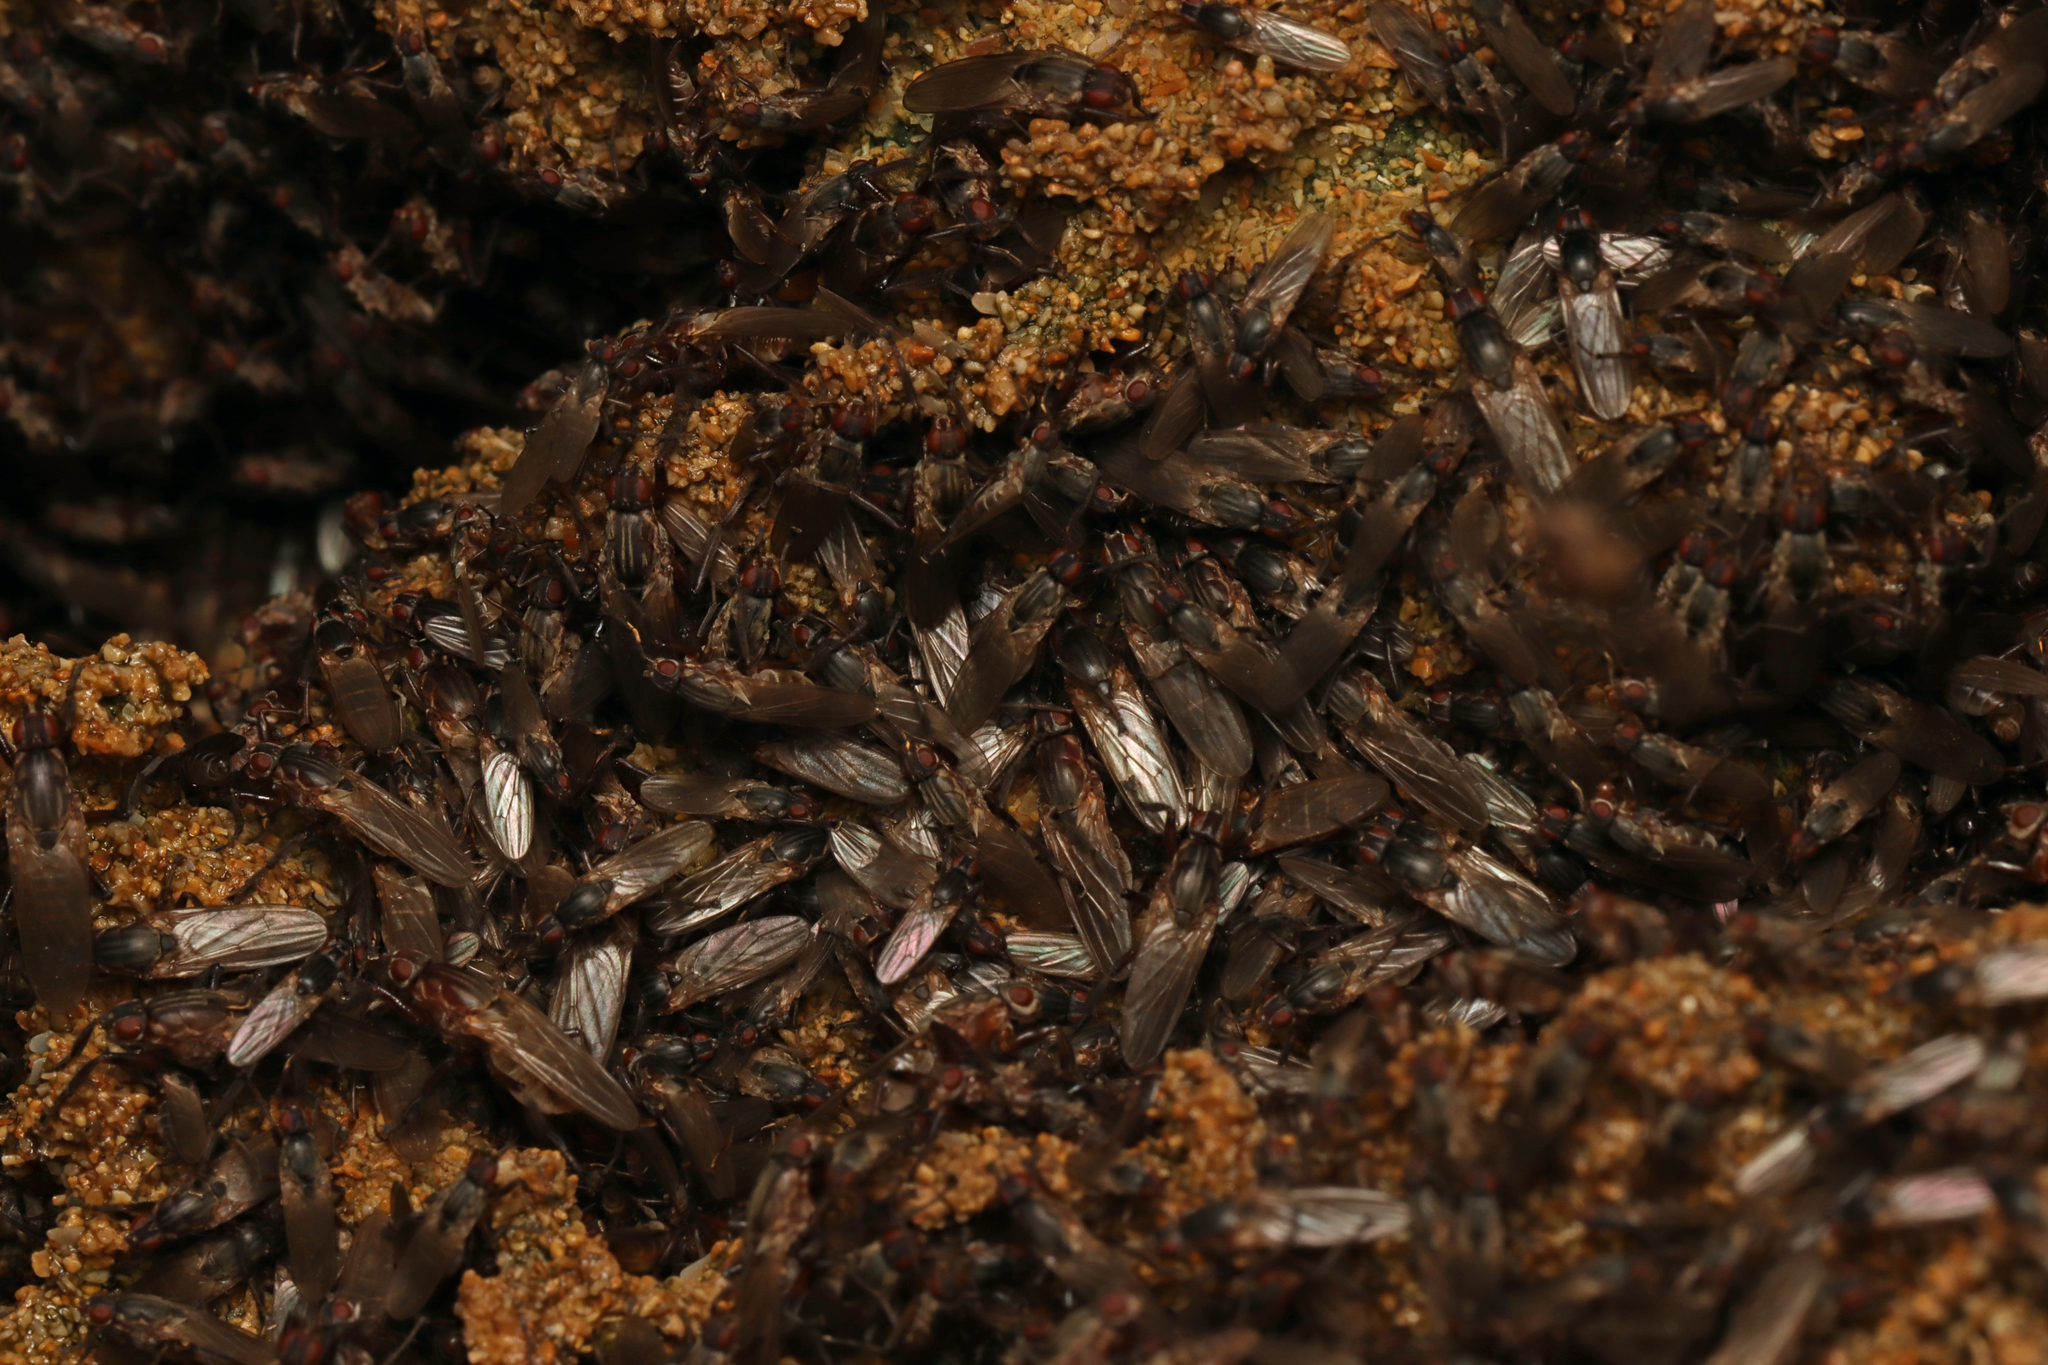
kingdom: Animalia
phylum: Arthropoda
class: Insecta
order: Diptera
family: Coelopidae
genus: Chaetocoelopa
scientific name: Chaetocoelopa sydneyensis
